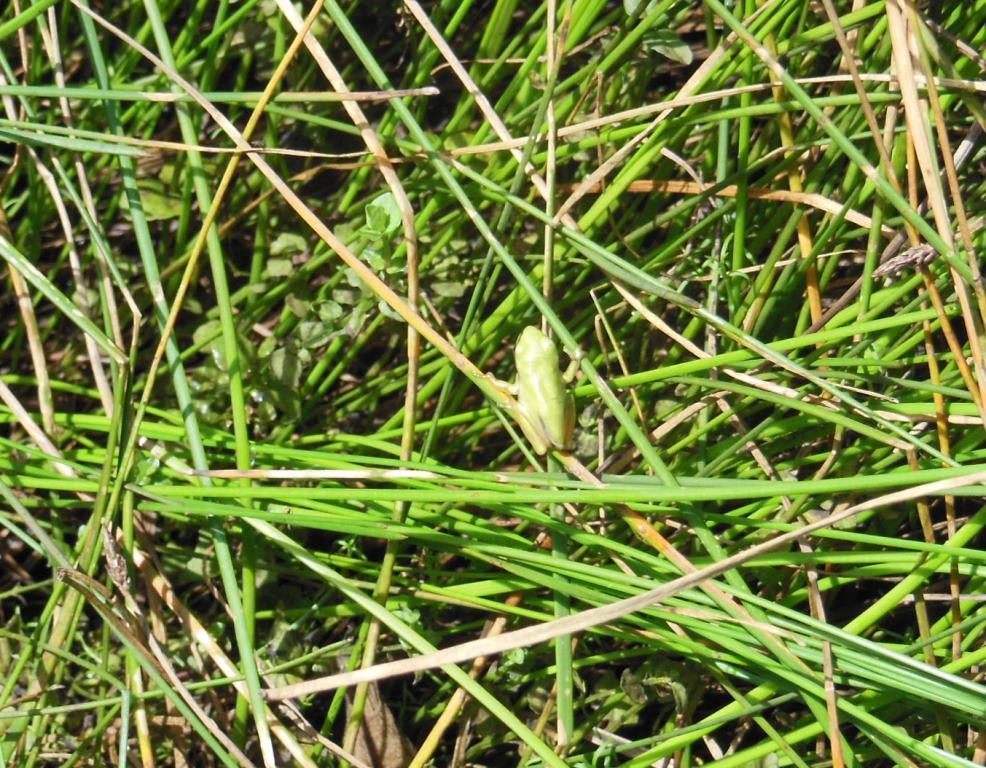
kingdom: Animalia
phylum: Chordata
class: Amphibia
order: Anura
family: Hylidae
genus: Dryophytes
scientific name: Dryophytes walkeri
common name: Walker's treefrog
